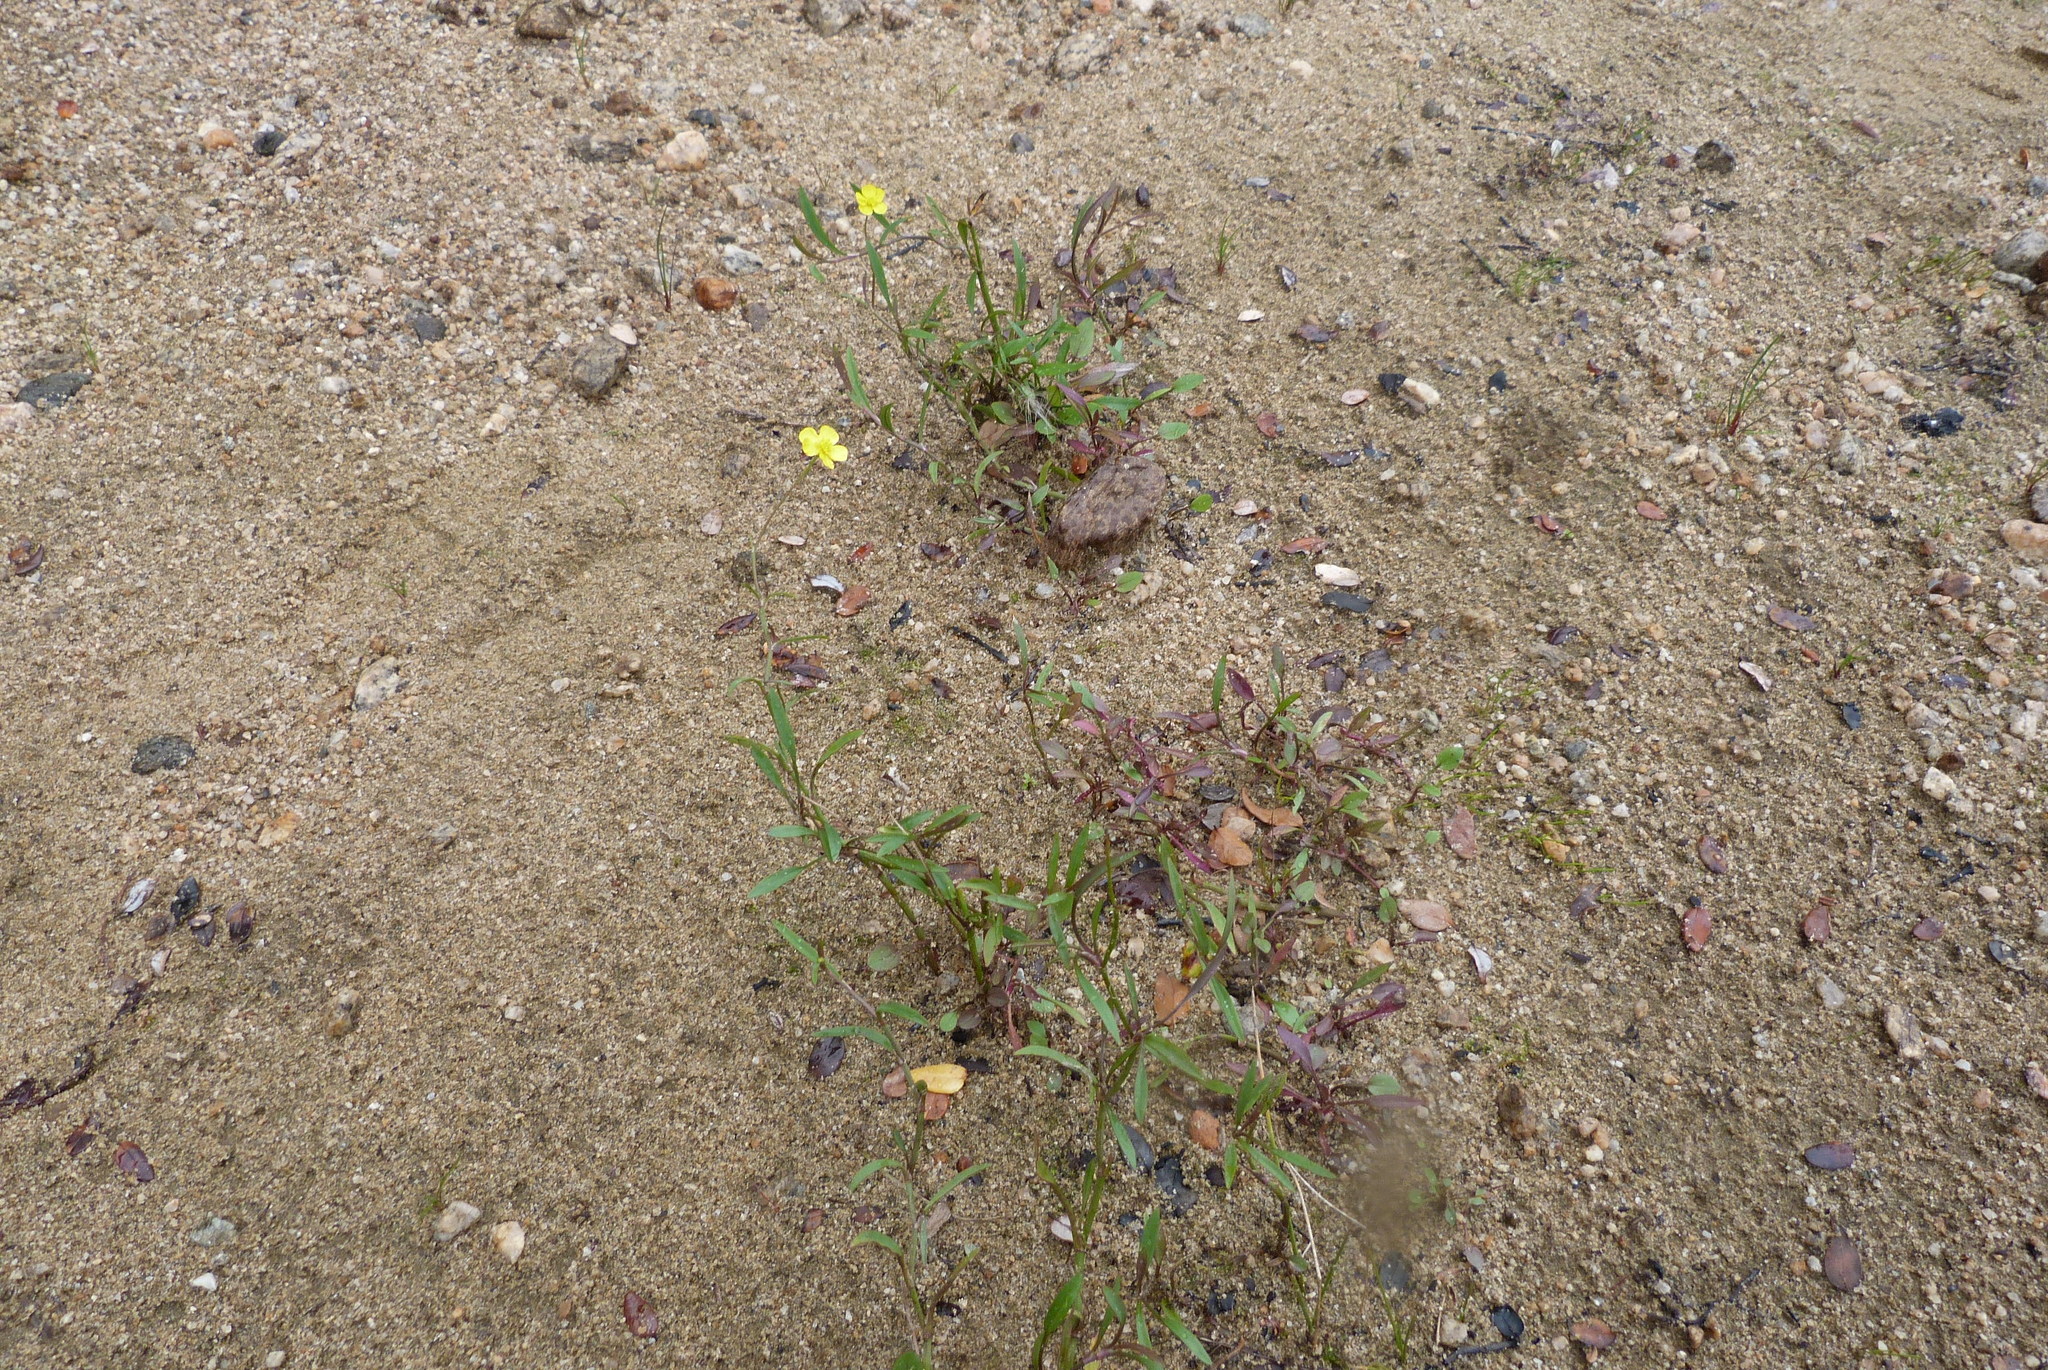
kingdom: Plantae
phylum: Tracheophyta
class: Magnoliopsida
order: Ranunculales
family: Ranunculaceae
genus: Ranunculus
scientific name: Ranunculus flammula
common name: Lesser spearwort
